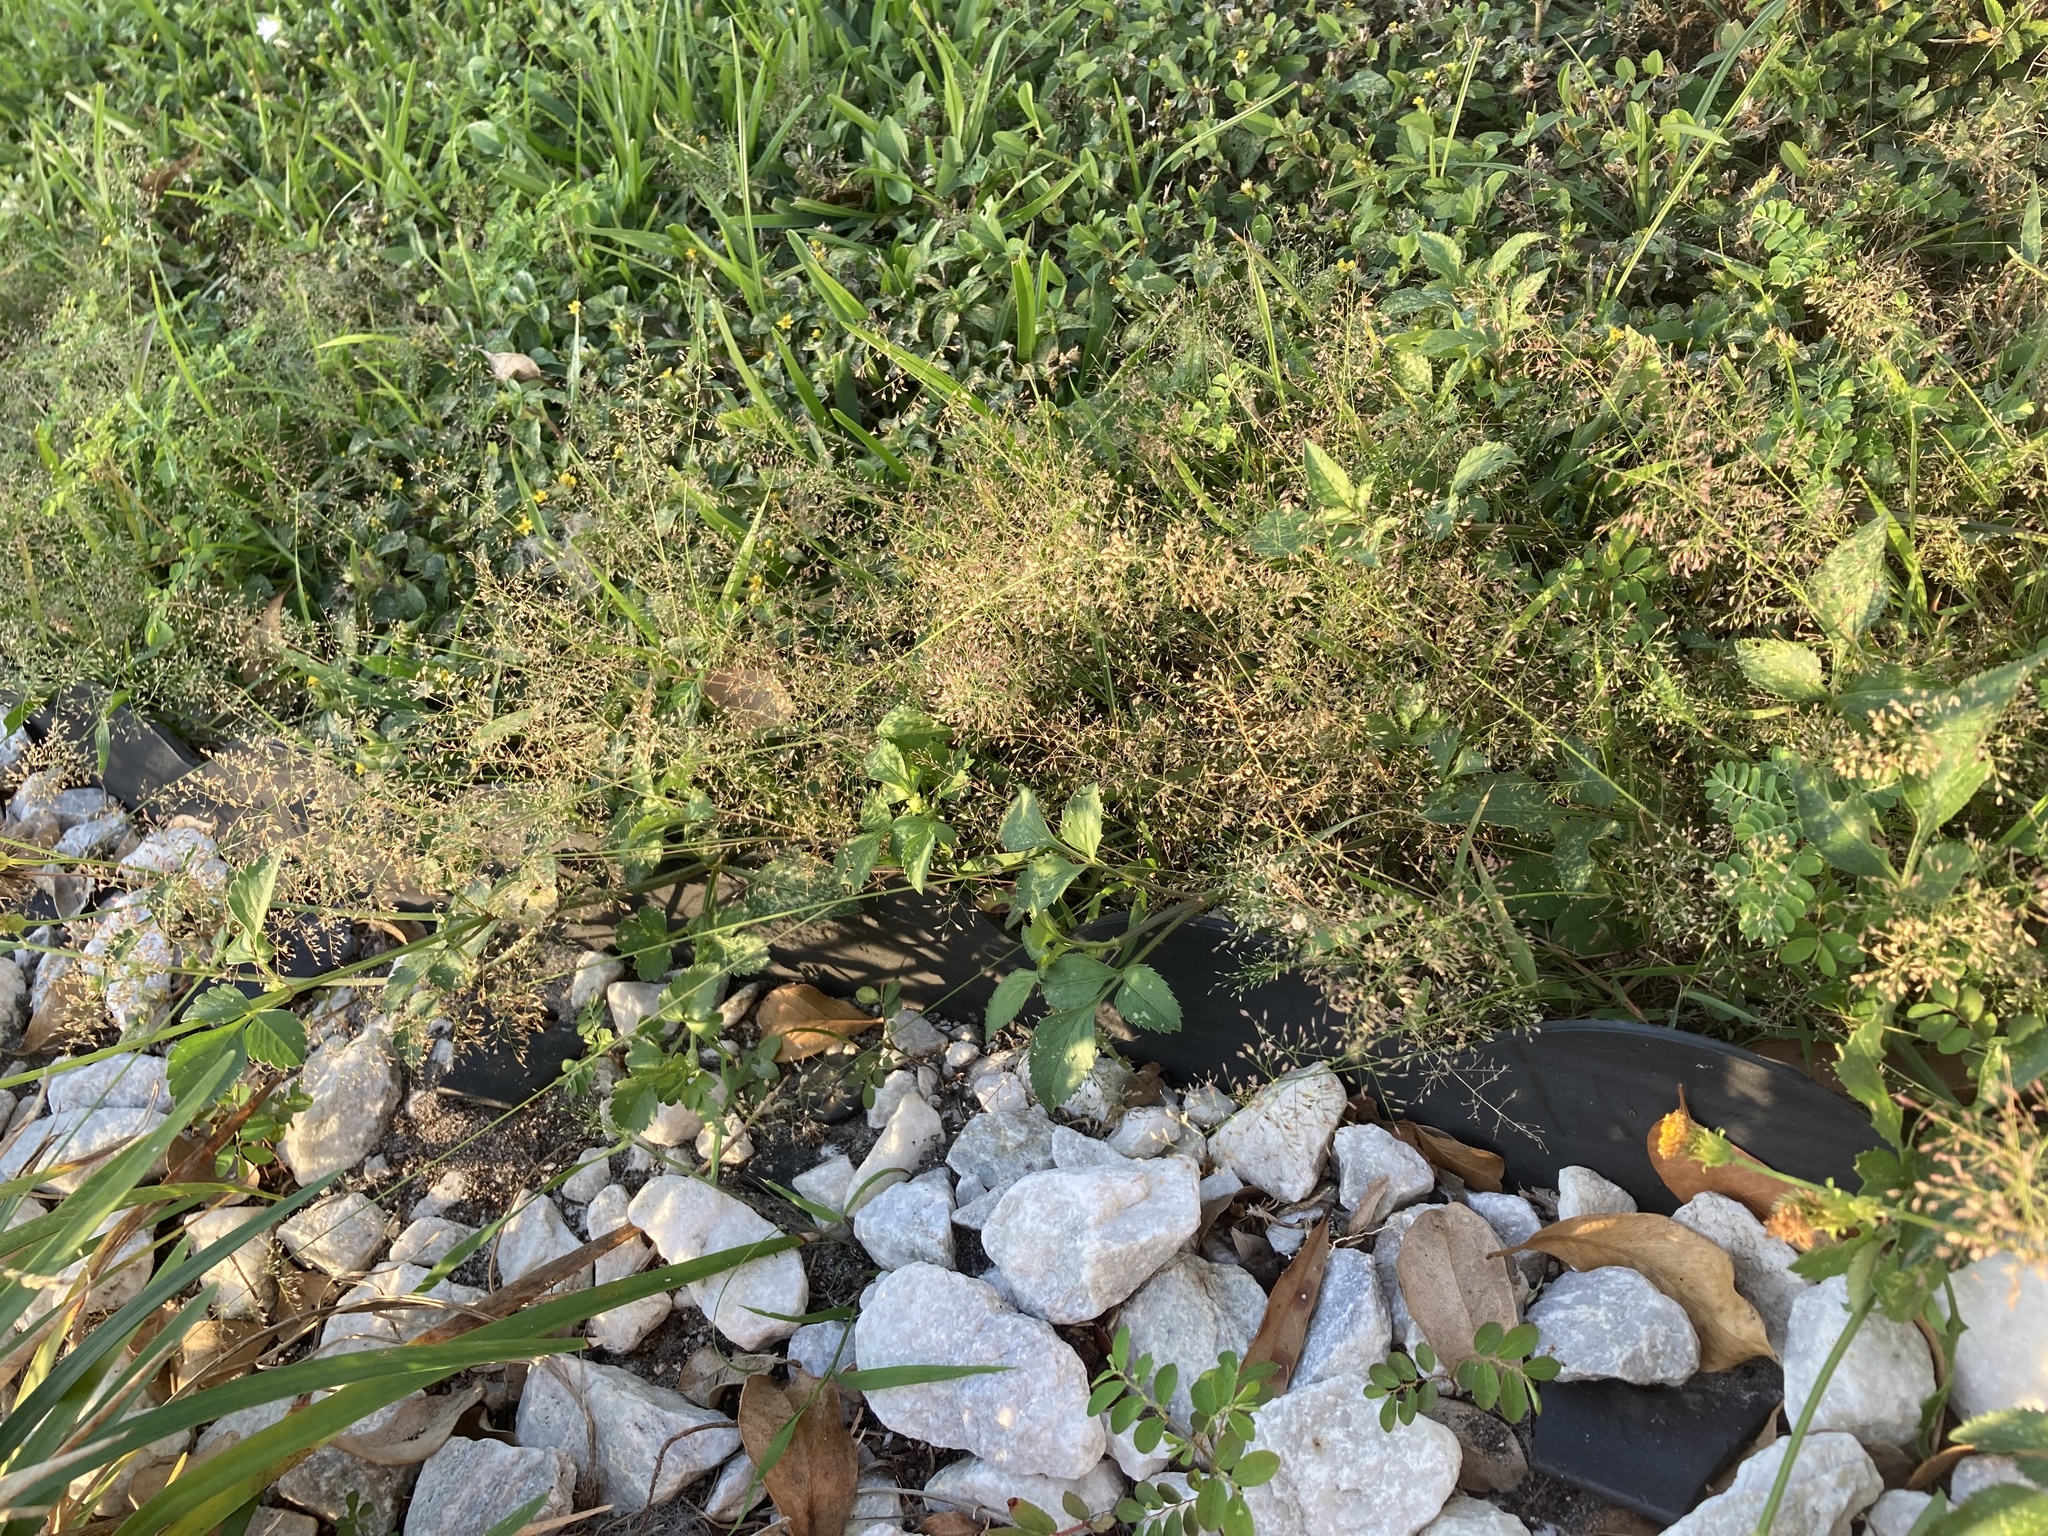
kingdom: Plantae
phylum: Tracheophyta
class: Liliopsida
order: Poales
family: Poaceae
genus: Eragrostis
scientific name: Eragrostis tenella
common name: Japanese lovegrass
